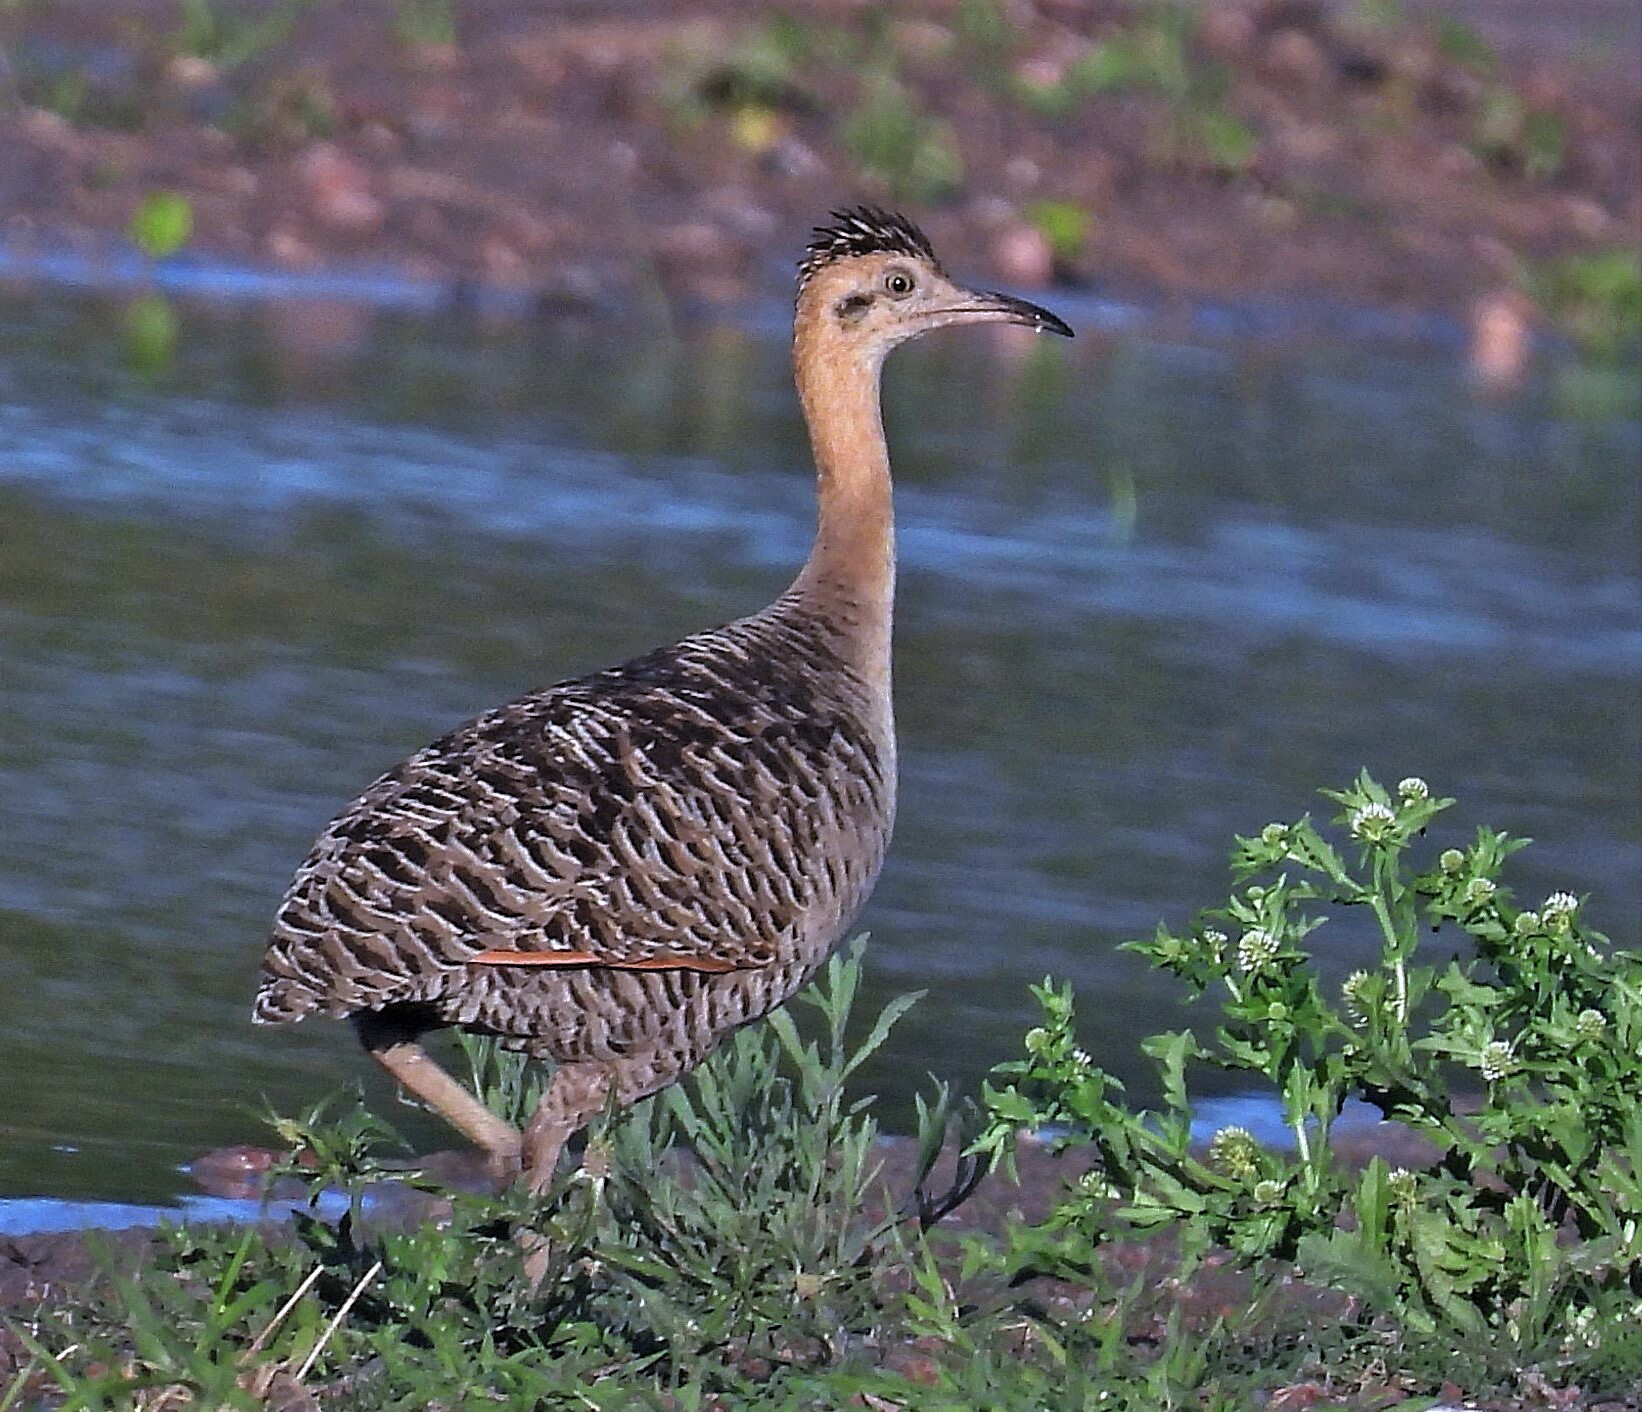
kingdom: Animalia
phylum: Chordata
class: Aves
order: Tinamiformes
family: Tinamidae
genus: Rhynchotus
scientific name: Rhynchotus rufescens
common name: Red-winged tinamou
